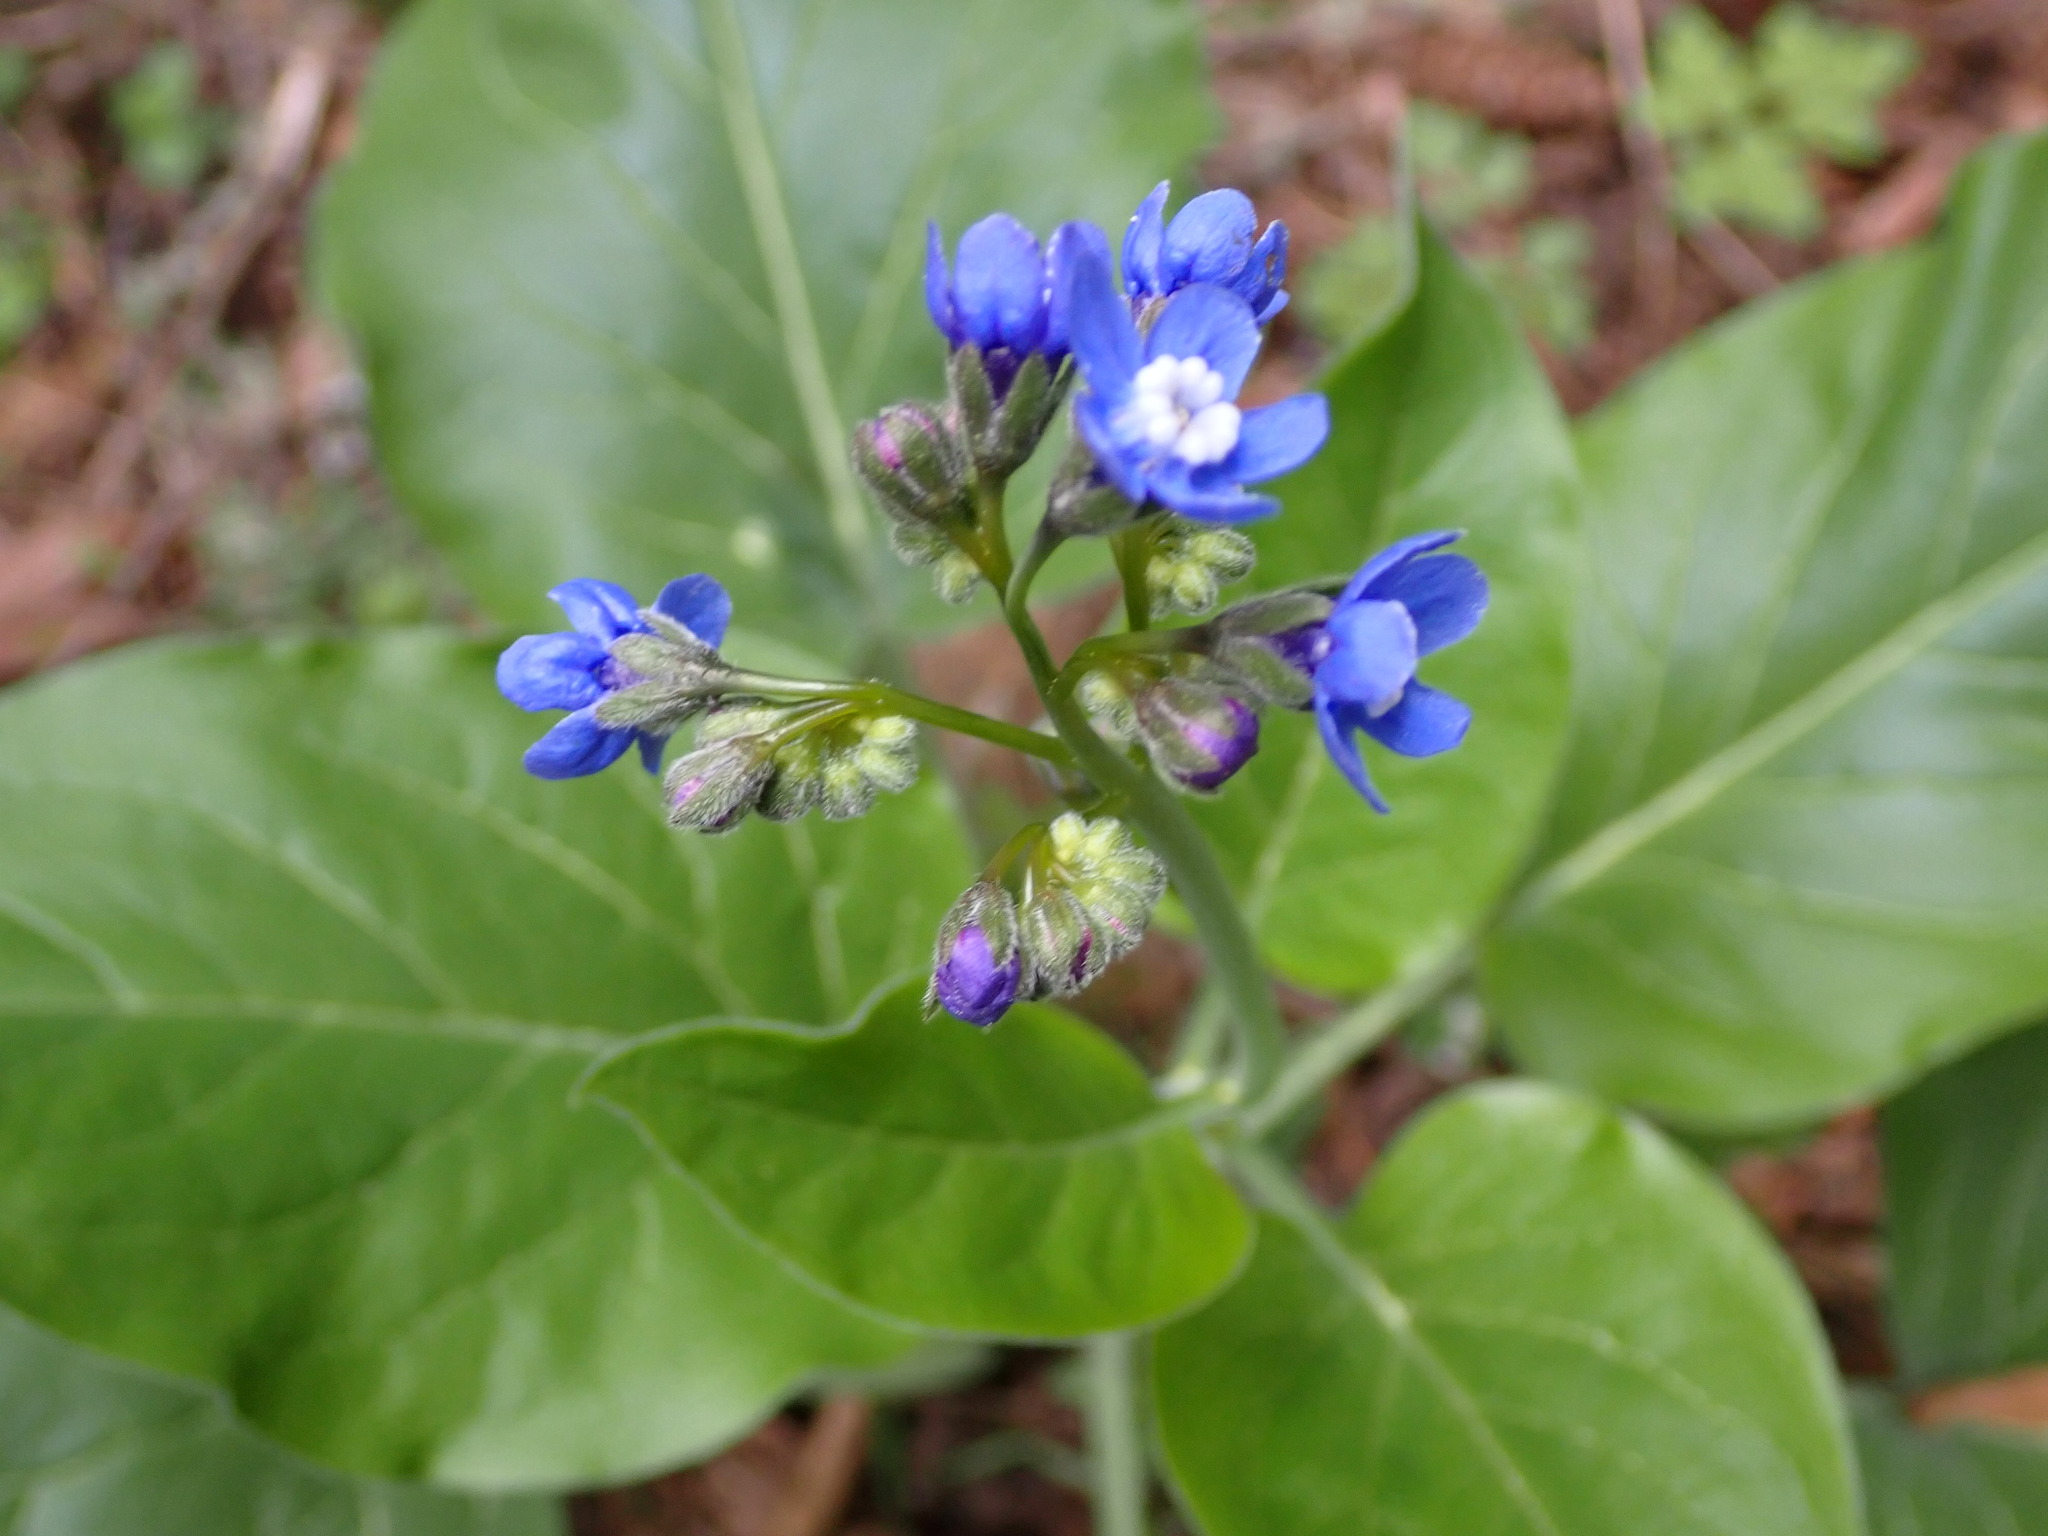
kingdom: Plantae
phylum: Tracheophyta
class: Magnoliopsida
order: Boraginales
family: Boraginaceae
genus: Adelinia
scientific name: Adelinia grande
